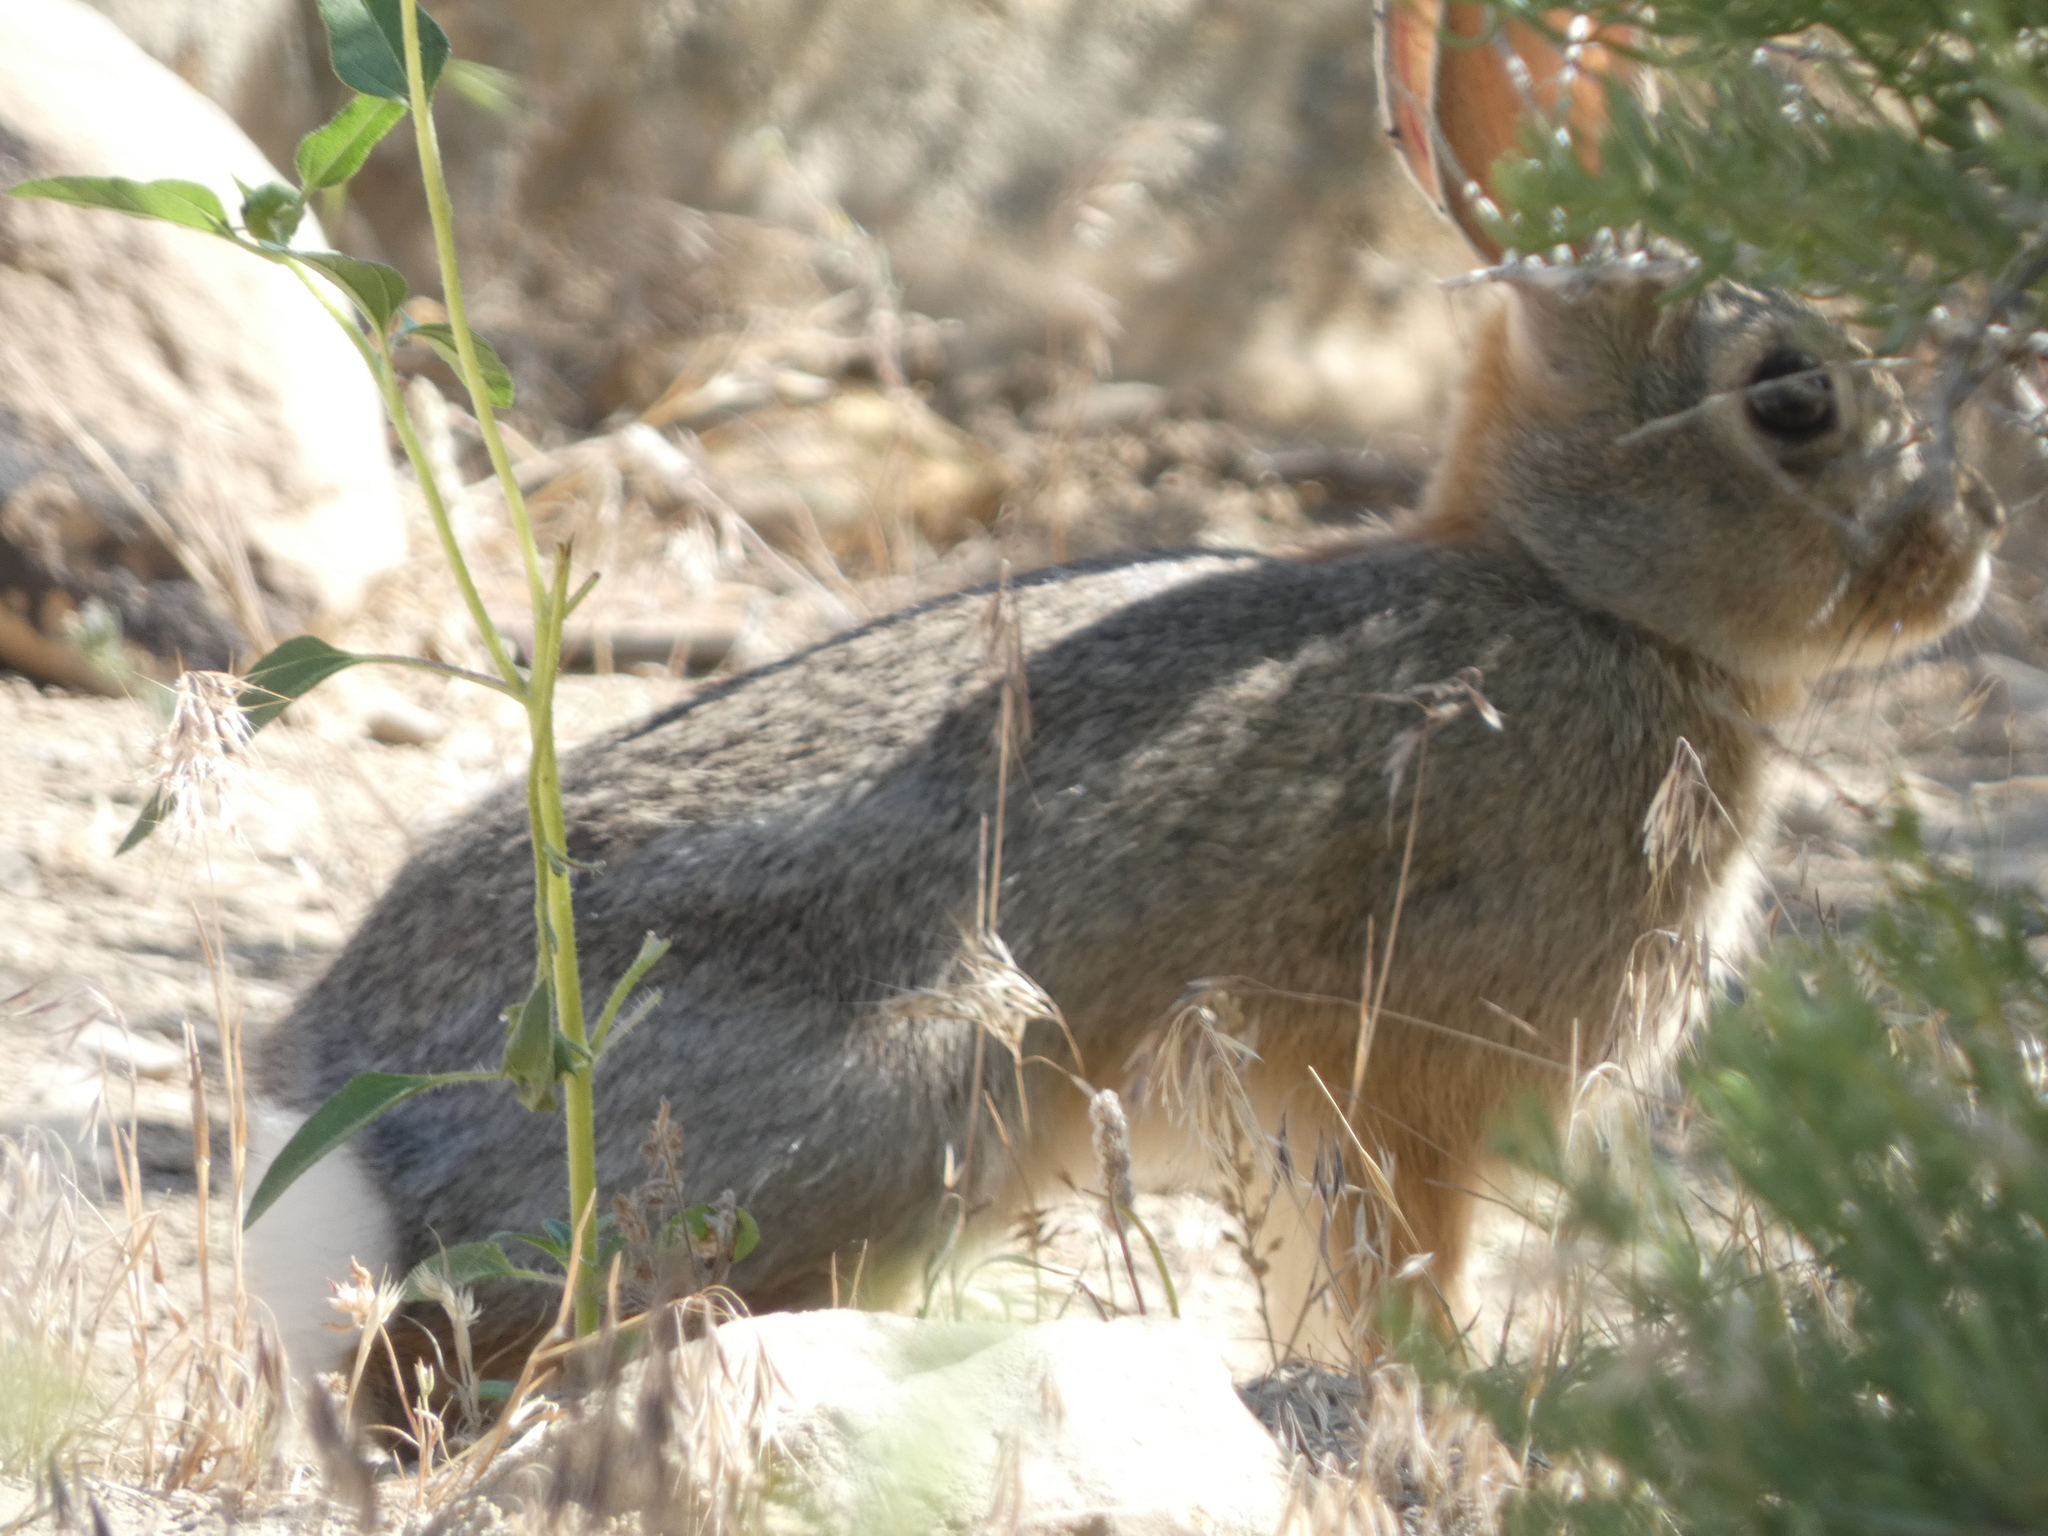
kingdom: Animalia
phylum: Chordata
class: Mammalia
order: Lagomorpha
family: Leporidae
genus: Sylvilagus
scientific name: Sylvilagus audubonii
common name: Desert cottontail
